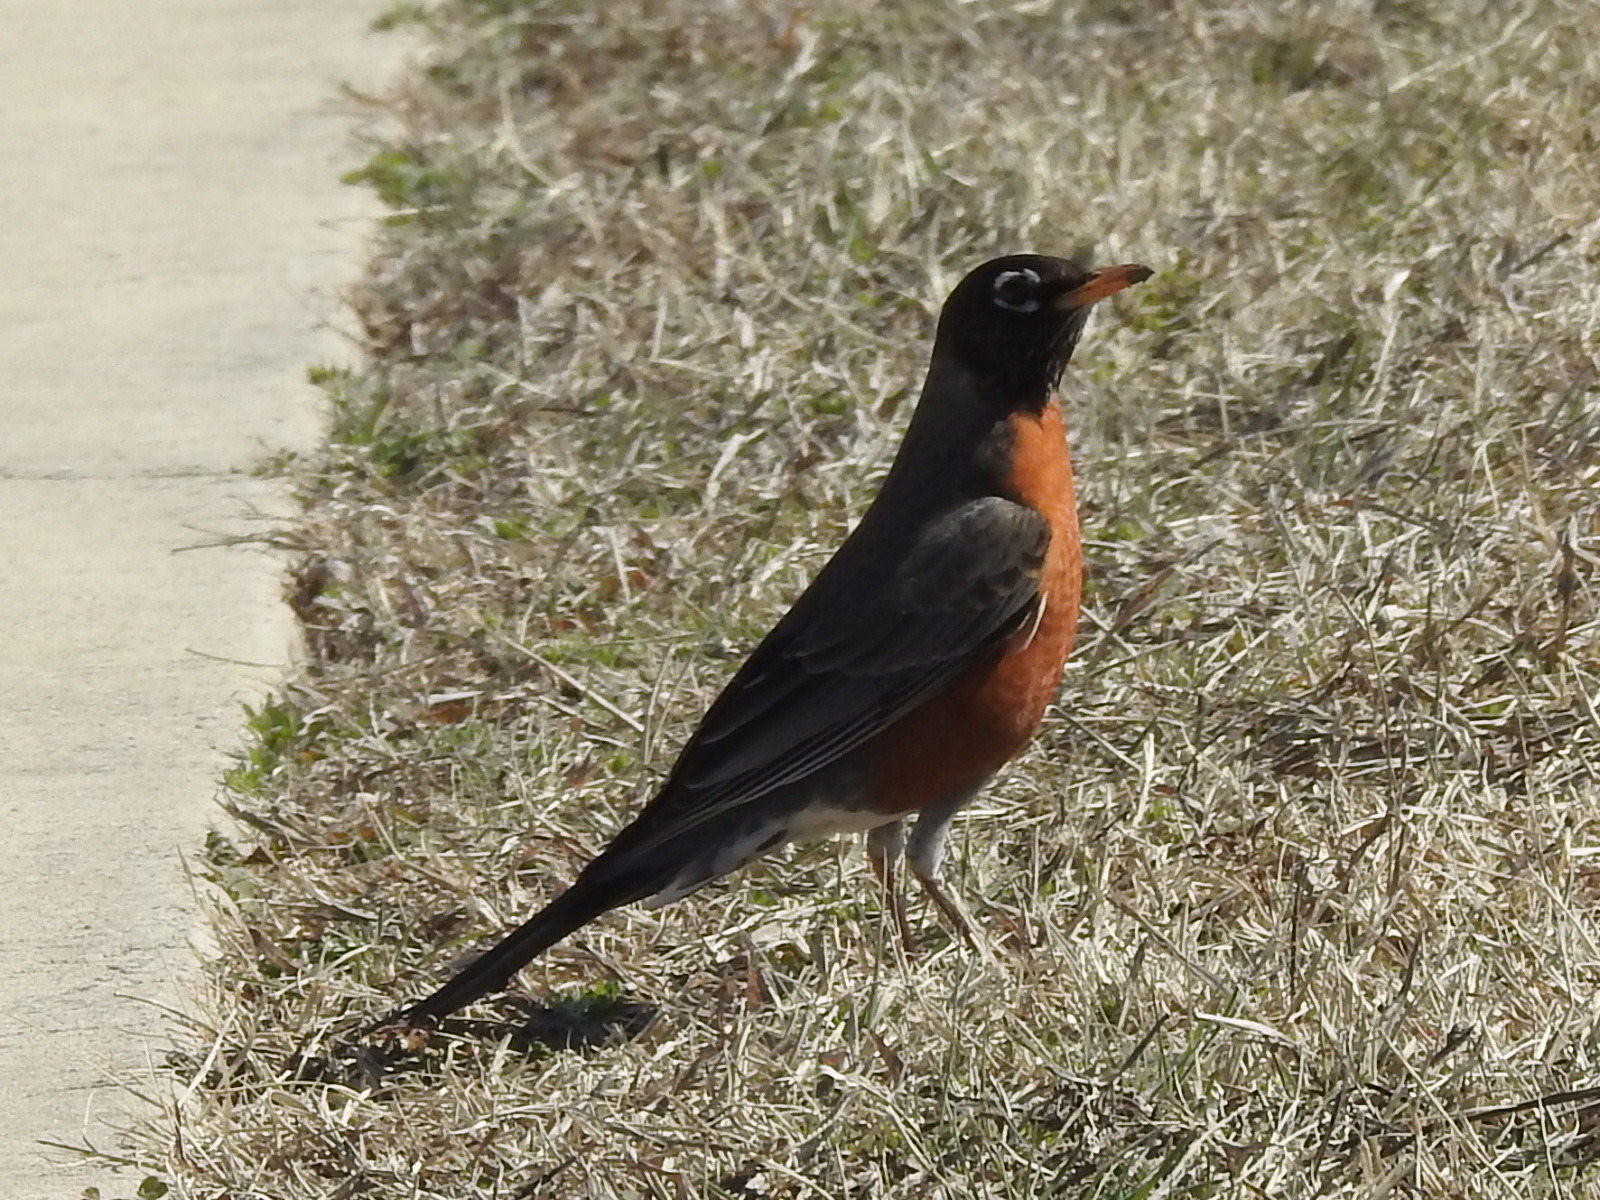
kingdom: Animalia
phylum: Chordata
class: Aves
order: Passeriformes
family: Turdidae
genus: Turdus
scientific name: Turdus migratorius
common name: American robin
